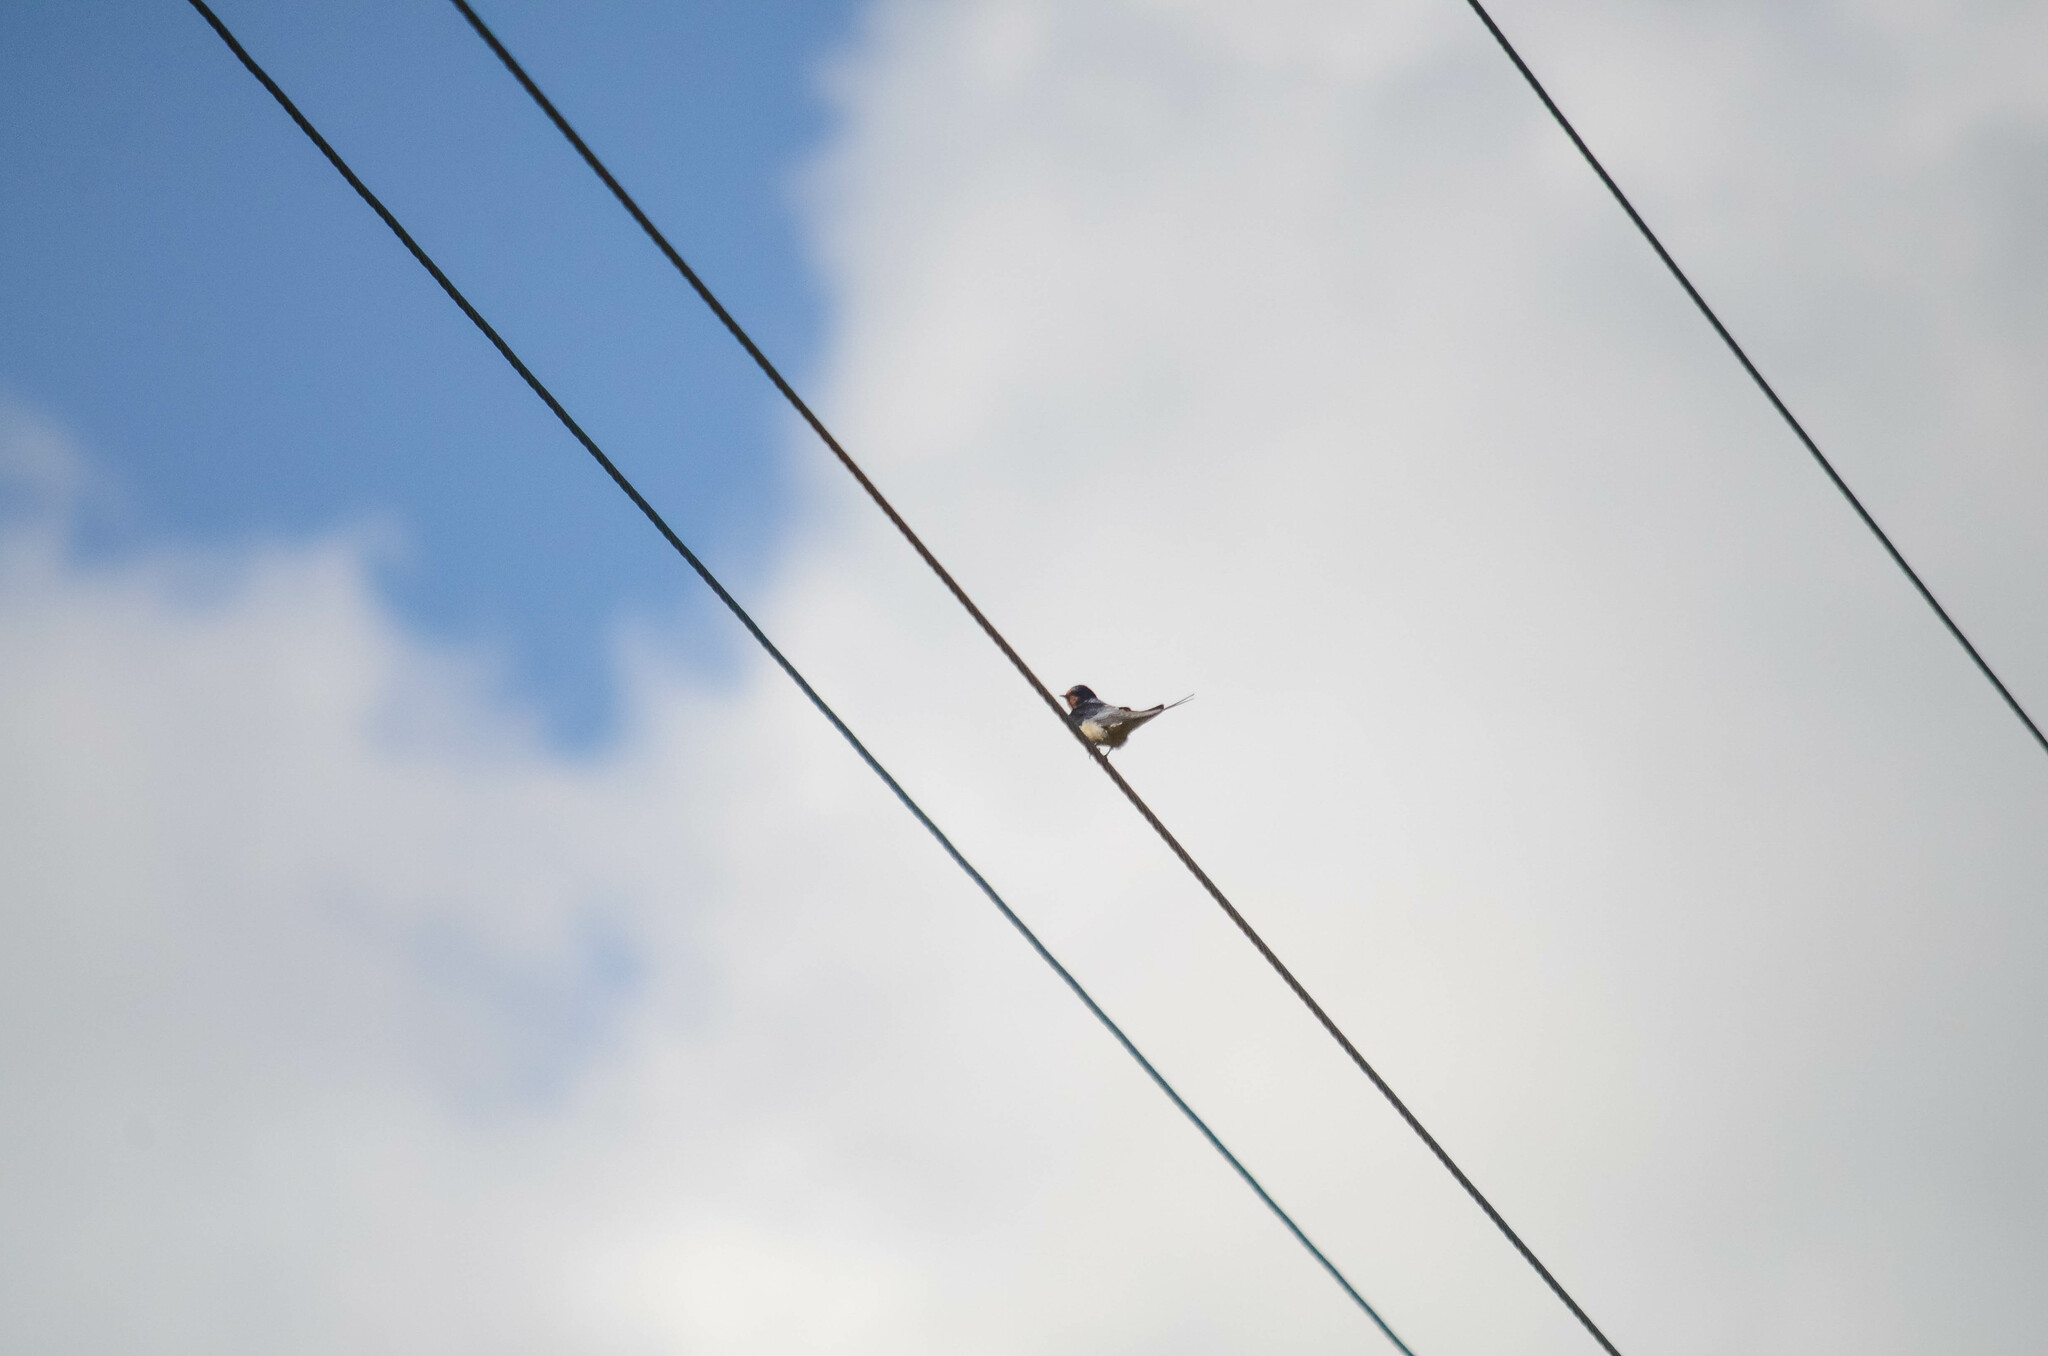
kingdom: Animalia
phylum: Chordata
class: Aves
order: Passeriformes
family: Hirundinidae
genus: Hirundo
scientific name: Hirundo rustica
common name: Barn swallow
